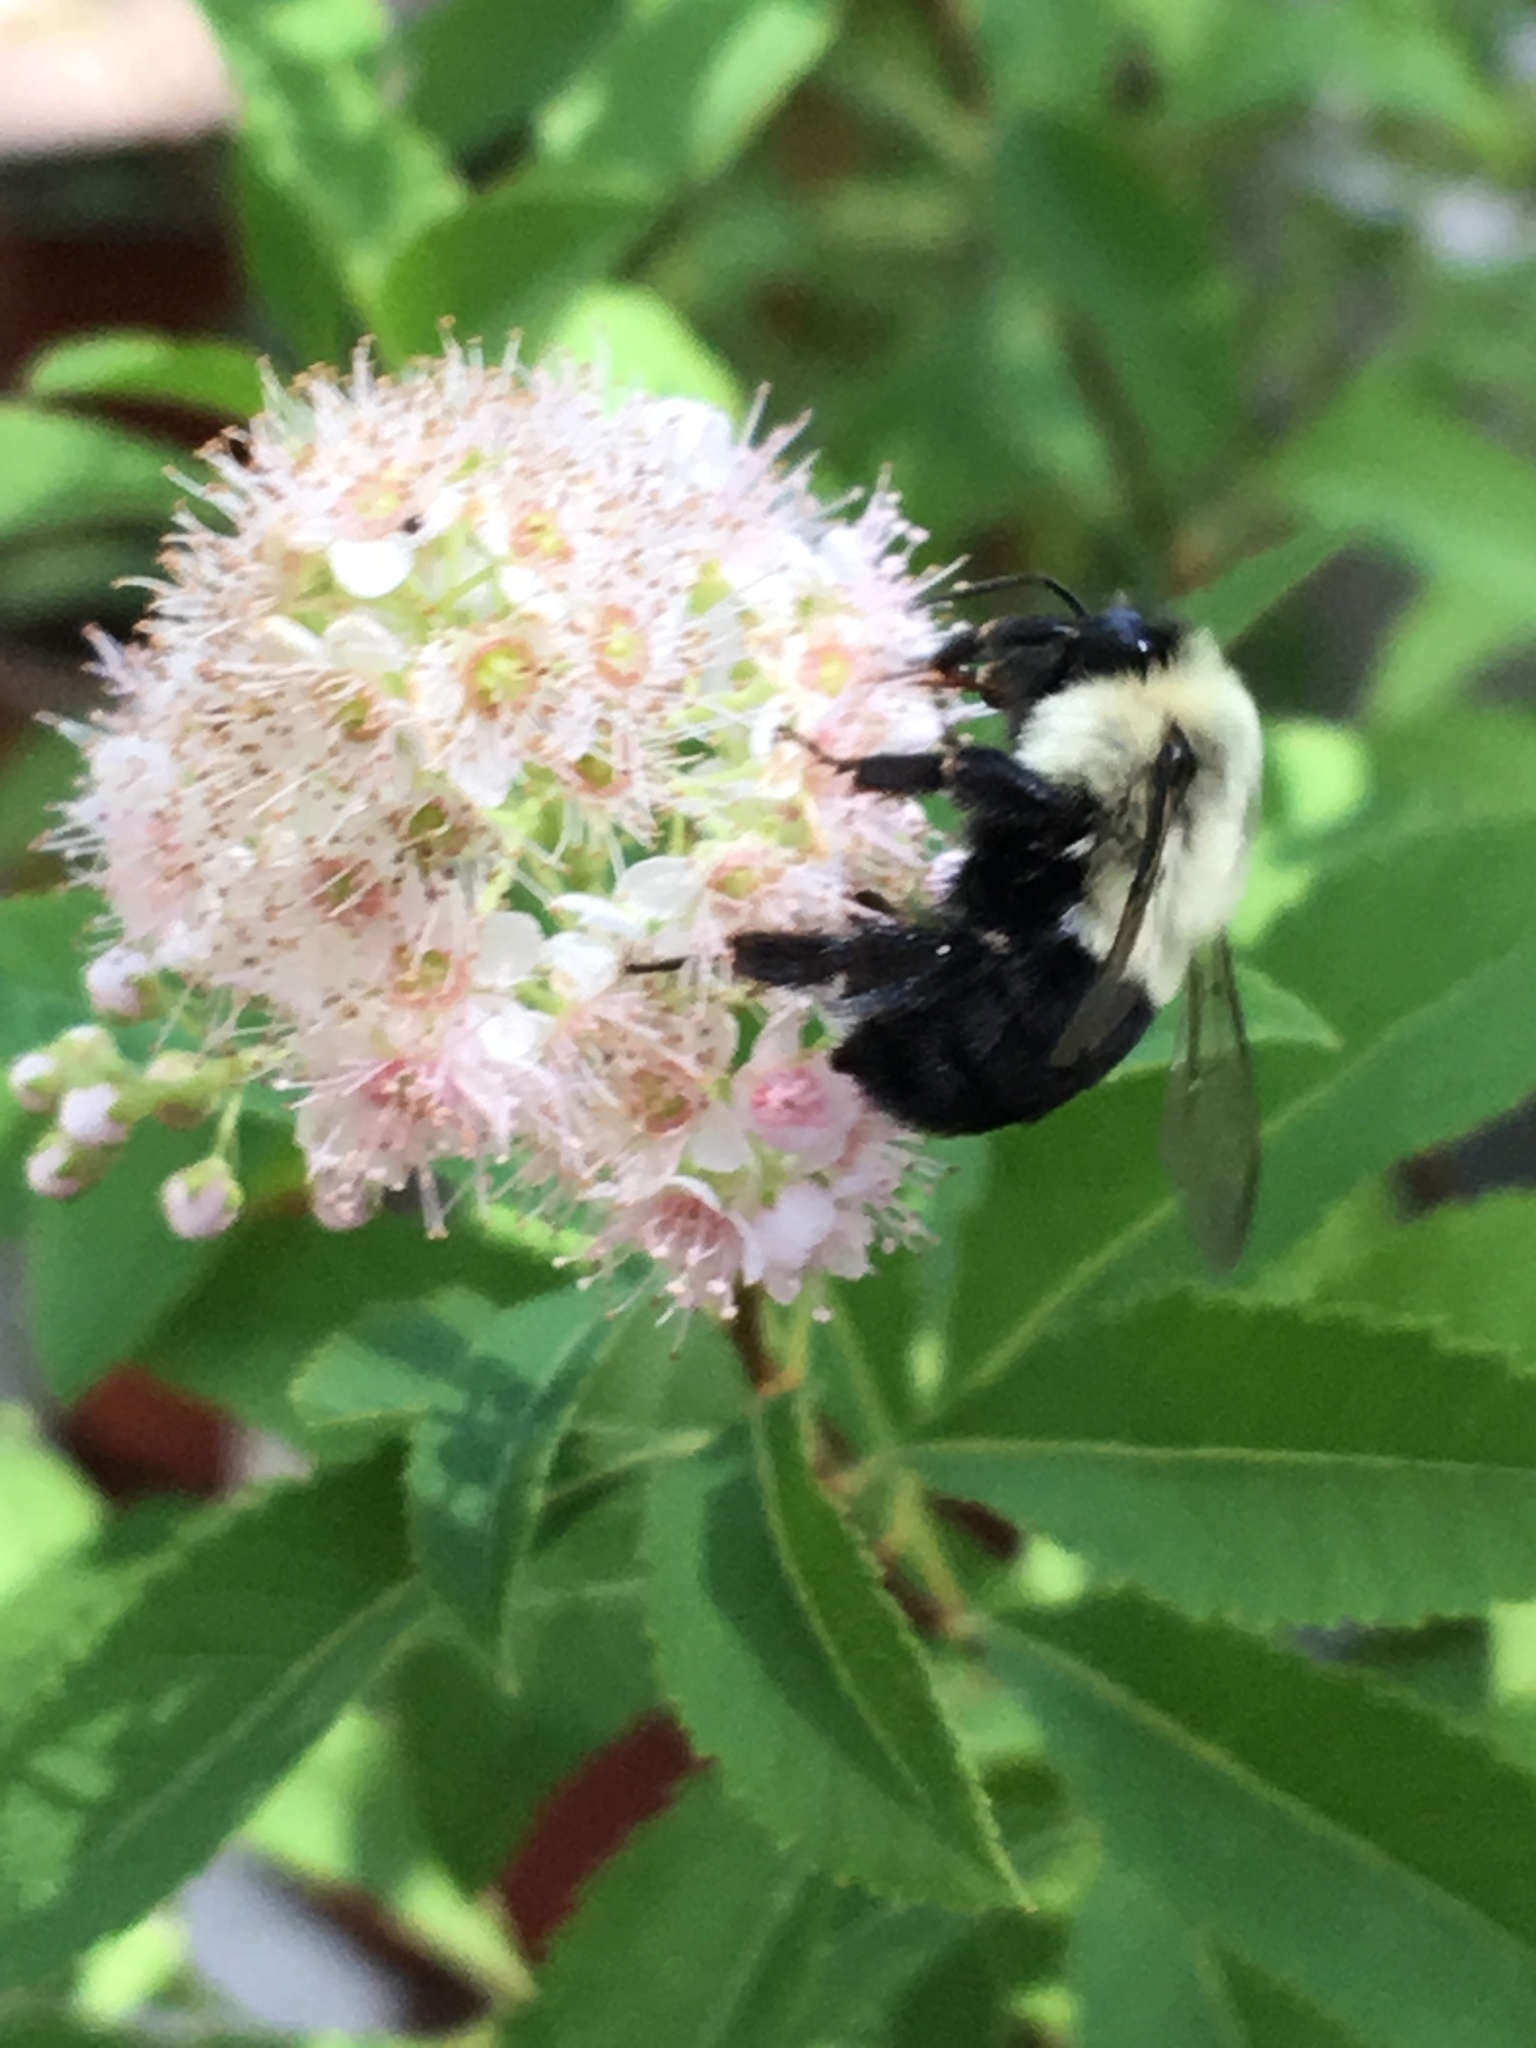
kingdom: Animalia
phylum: Arthropoda
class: Insecta
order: Hymenoptera
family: Apidae
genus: Bombus
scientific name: Bombus impatiens
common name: Common eastern bumble bee
